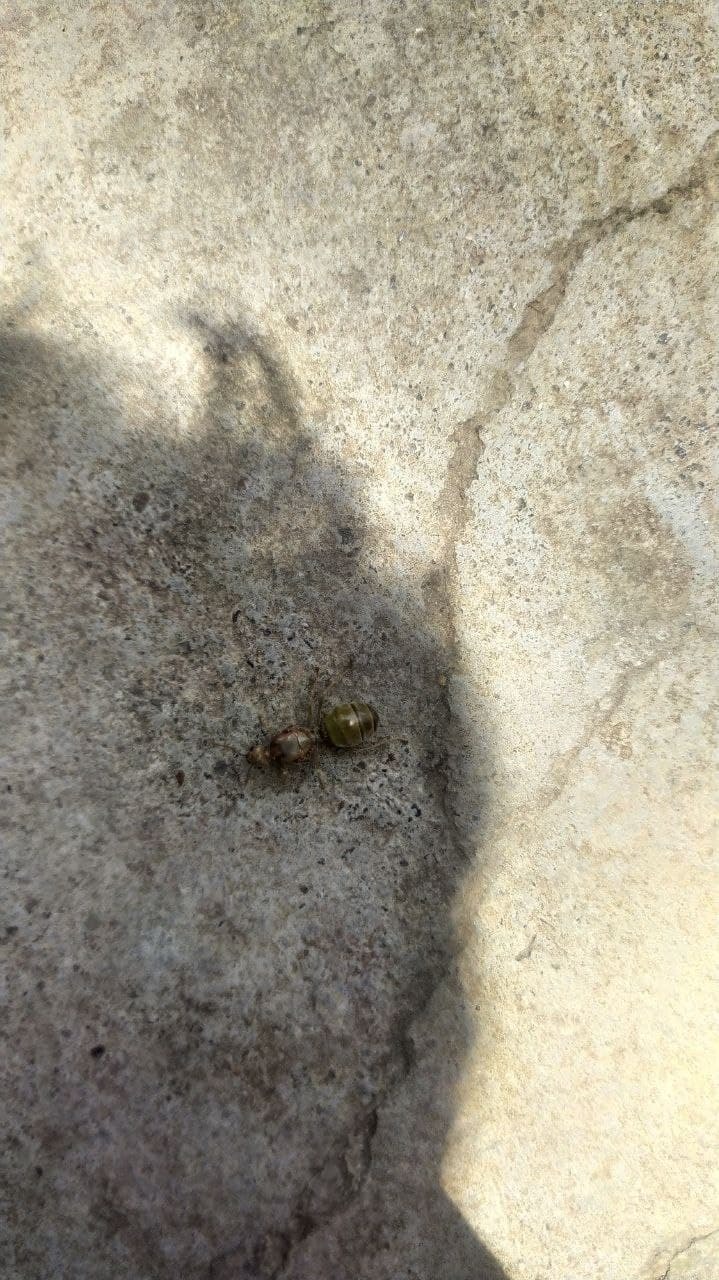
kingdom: Animalia
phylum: Arthropoda
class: Insecta
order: Hymenoptera
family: Formicidae
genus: Oecophylla
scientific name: Oecophylla smaragdina
